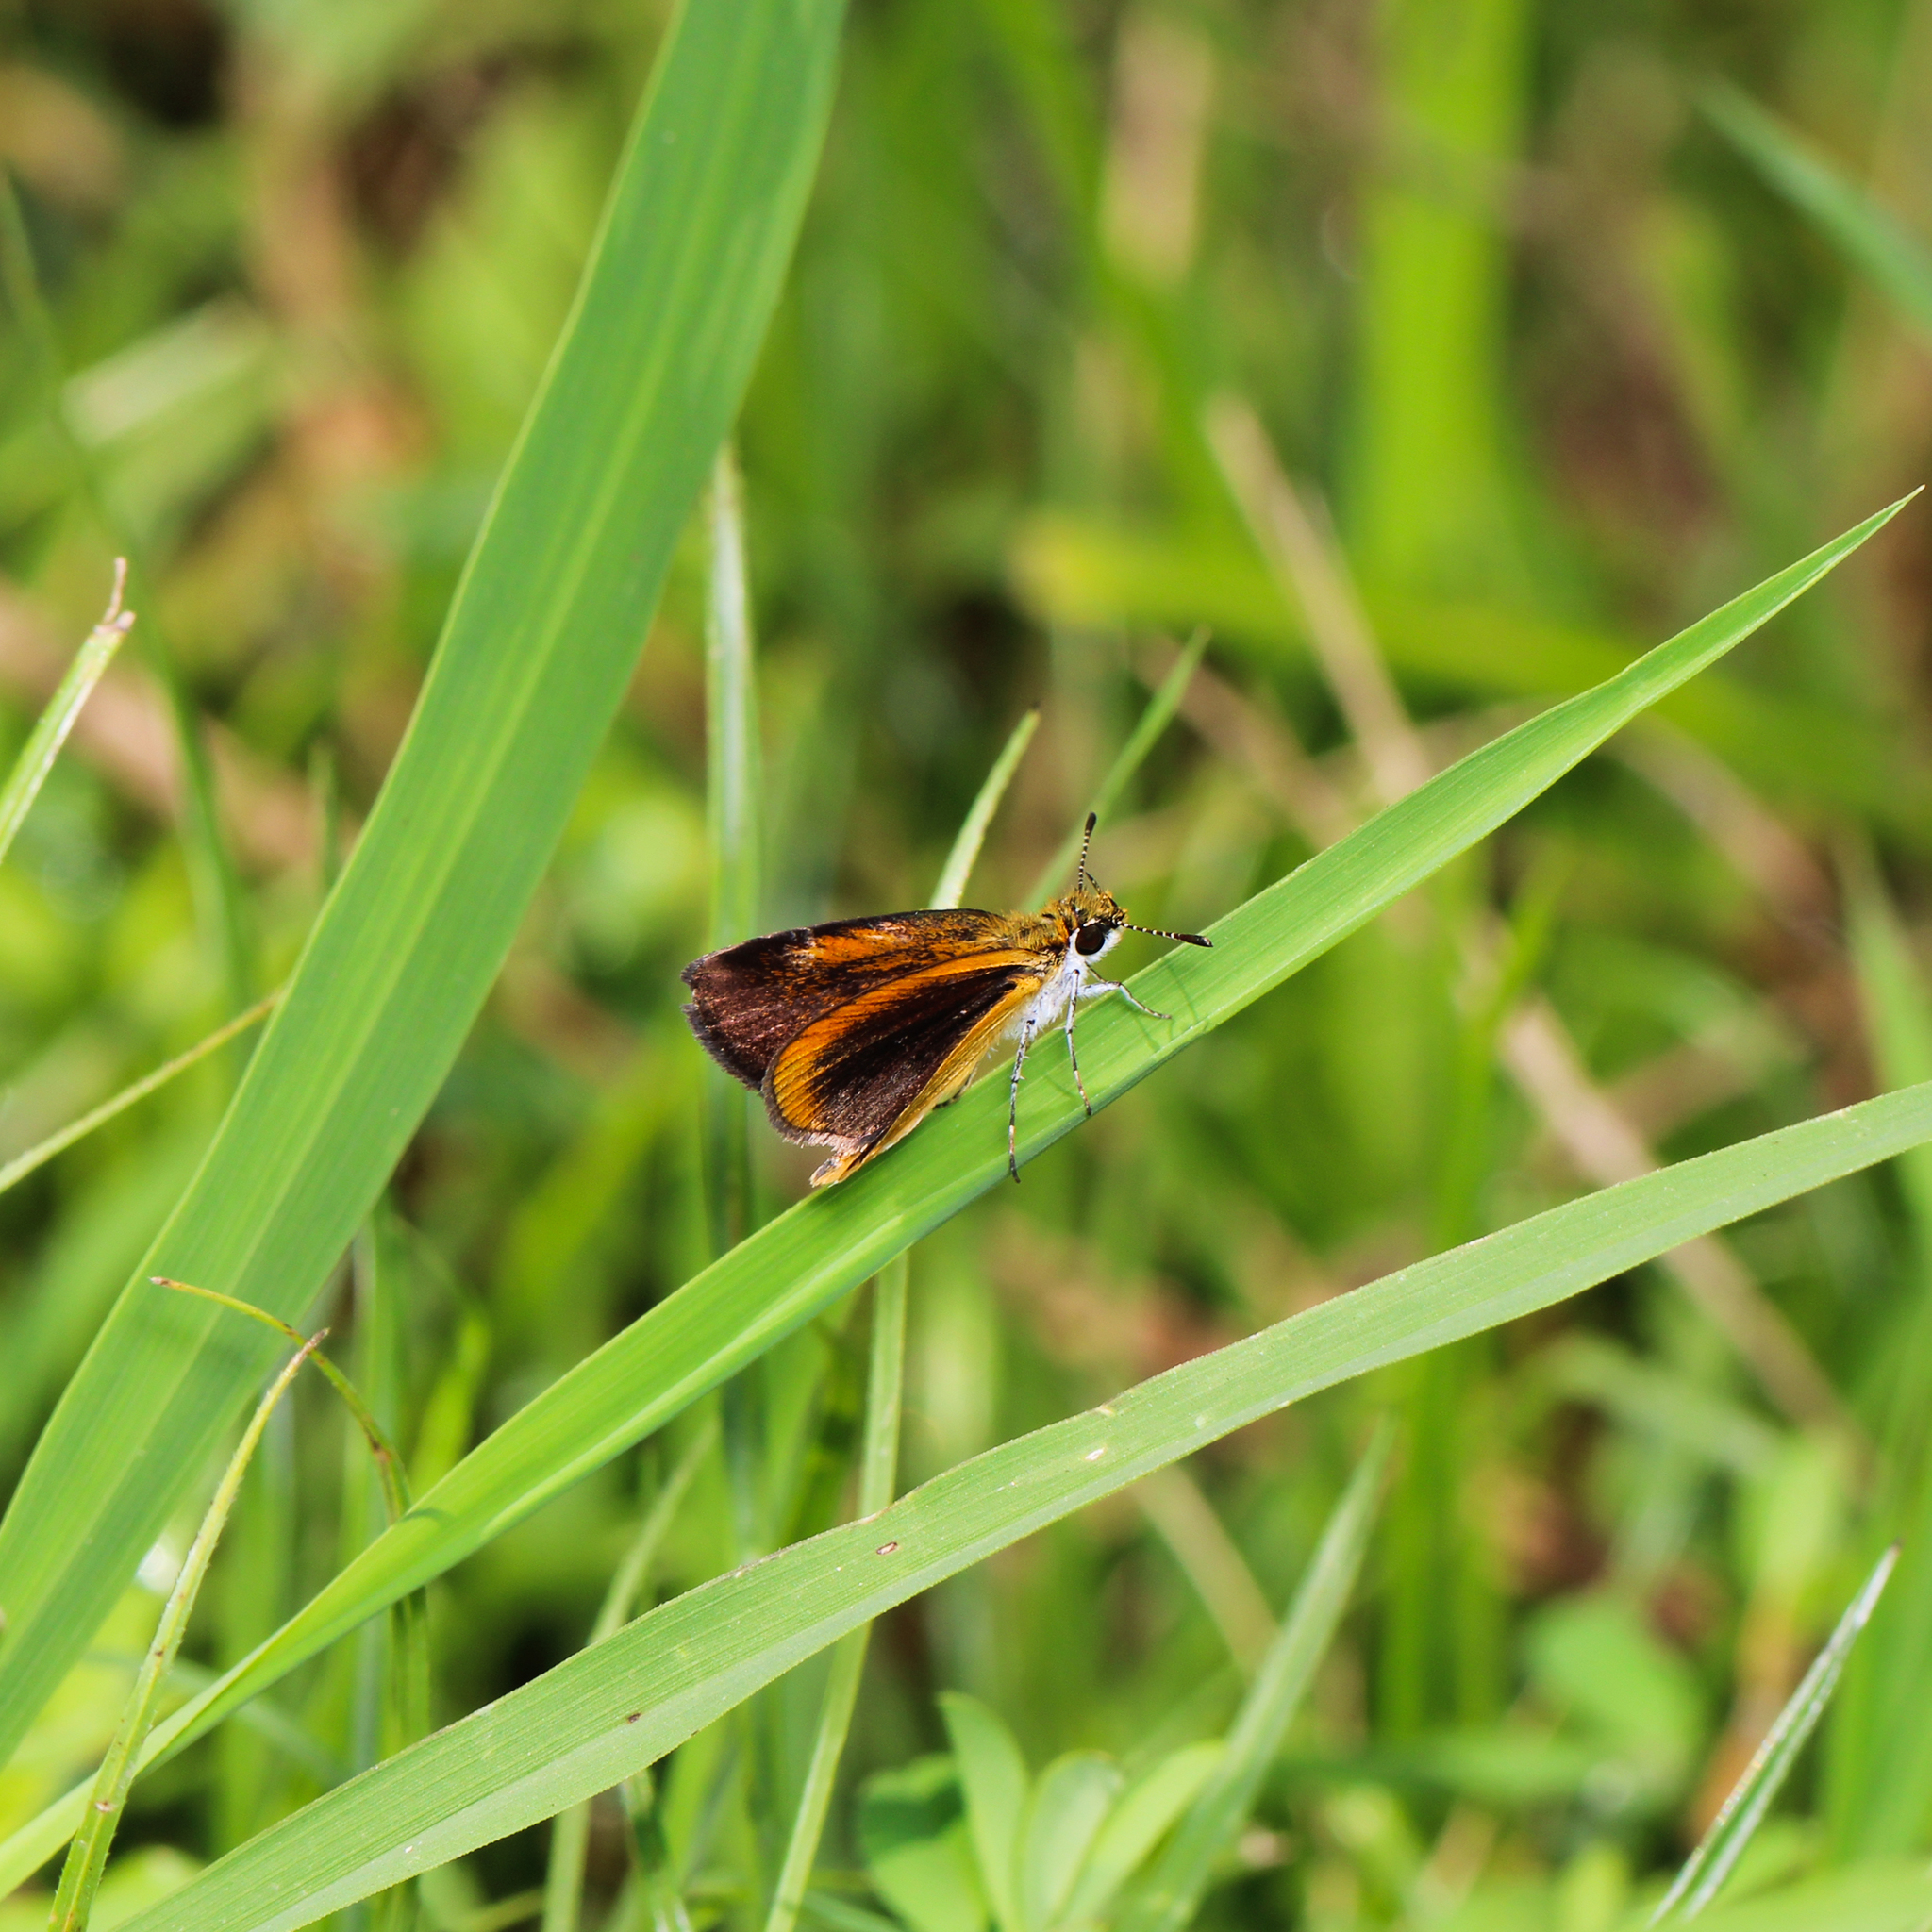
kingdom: Animalia
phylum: Arthropoda
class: Insecta
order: Lepidoptera
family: Hesperiidae
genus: Ancyloxypha
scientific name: Ancyloxypha numitor
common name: Least skipper
